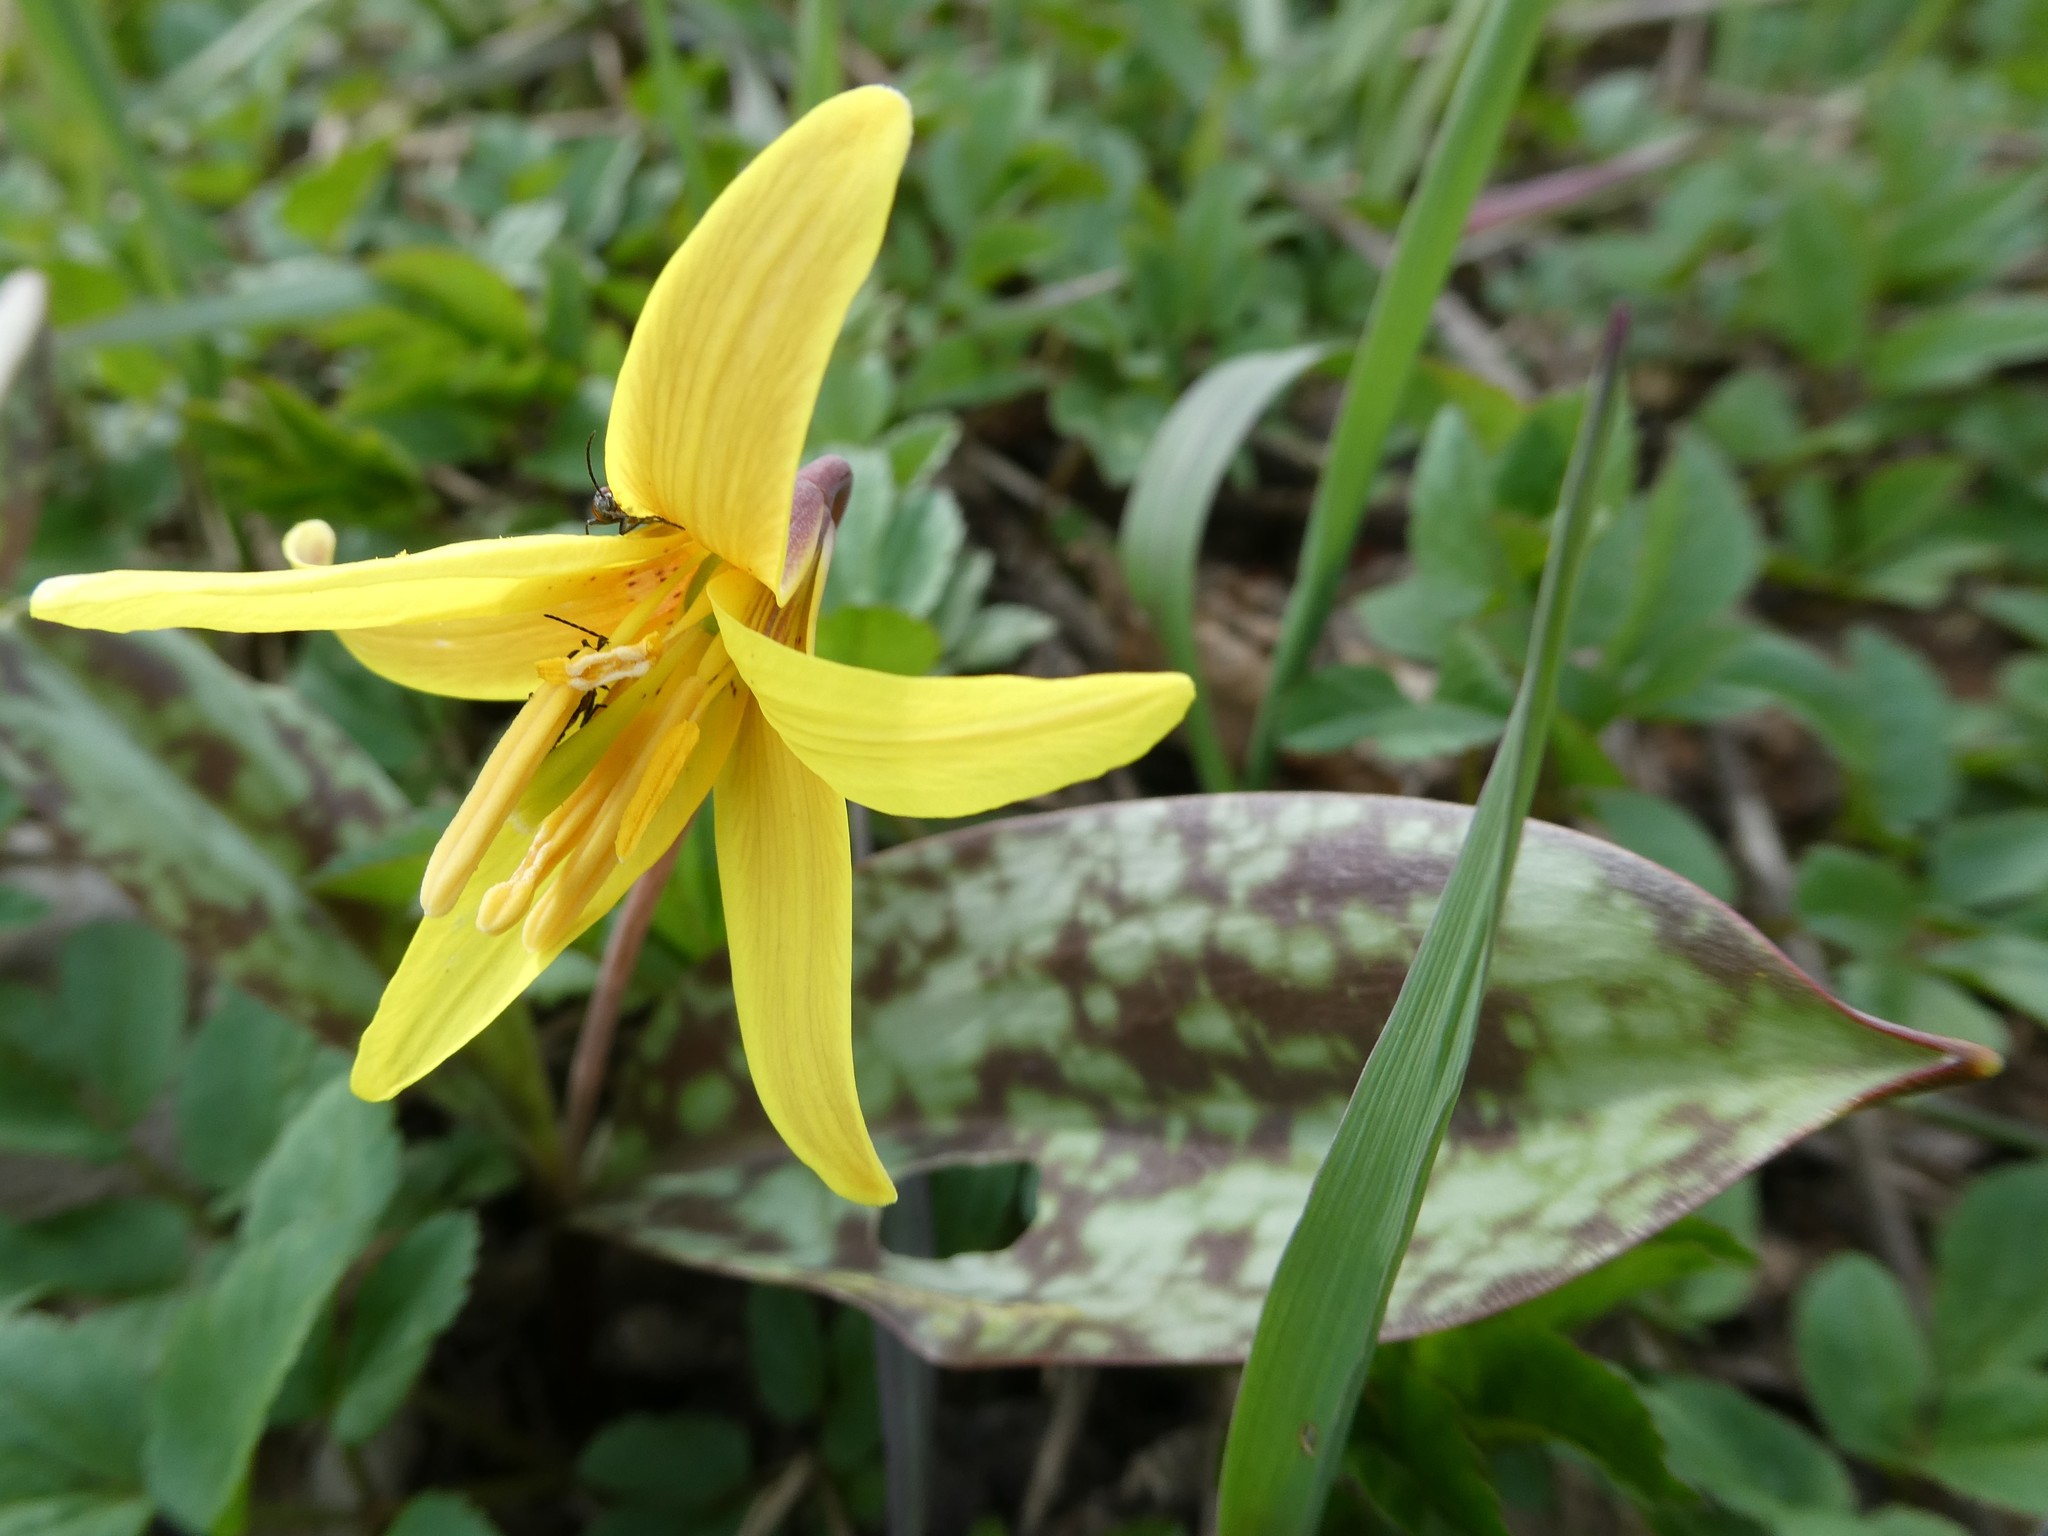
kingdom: Plantae
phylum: Tracheophyta
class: Liliopsida
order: Liliales
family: Liliaceae
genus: Erythronium
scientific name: Erythronium americanum
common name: Yellow adder's-tongue
